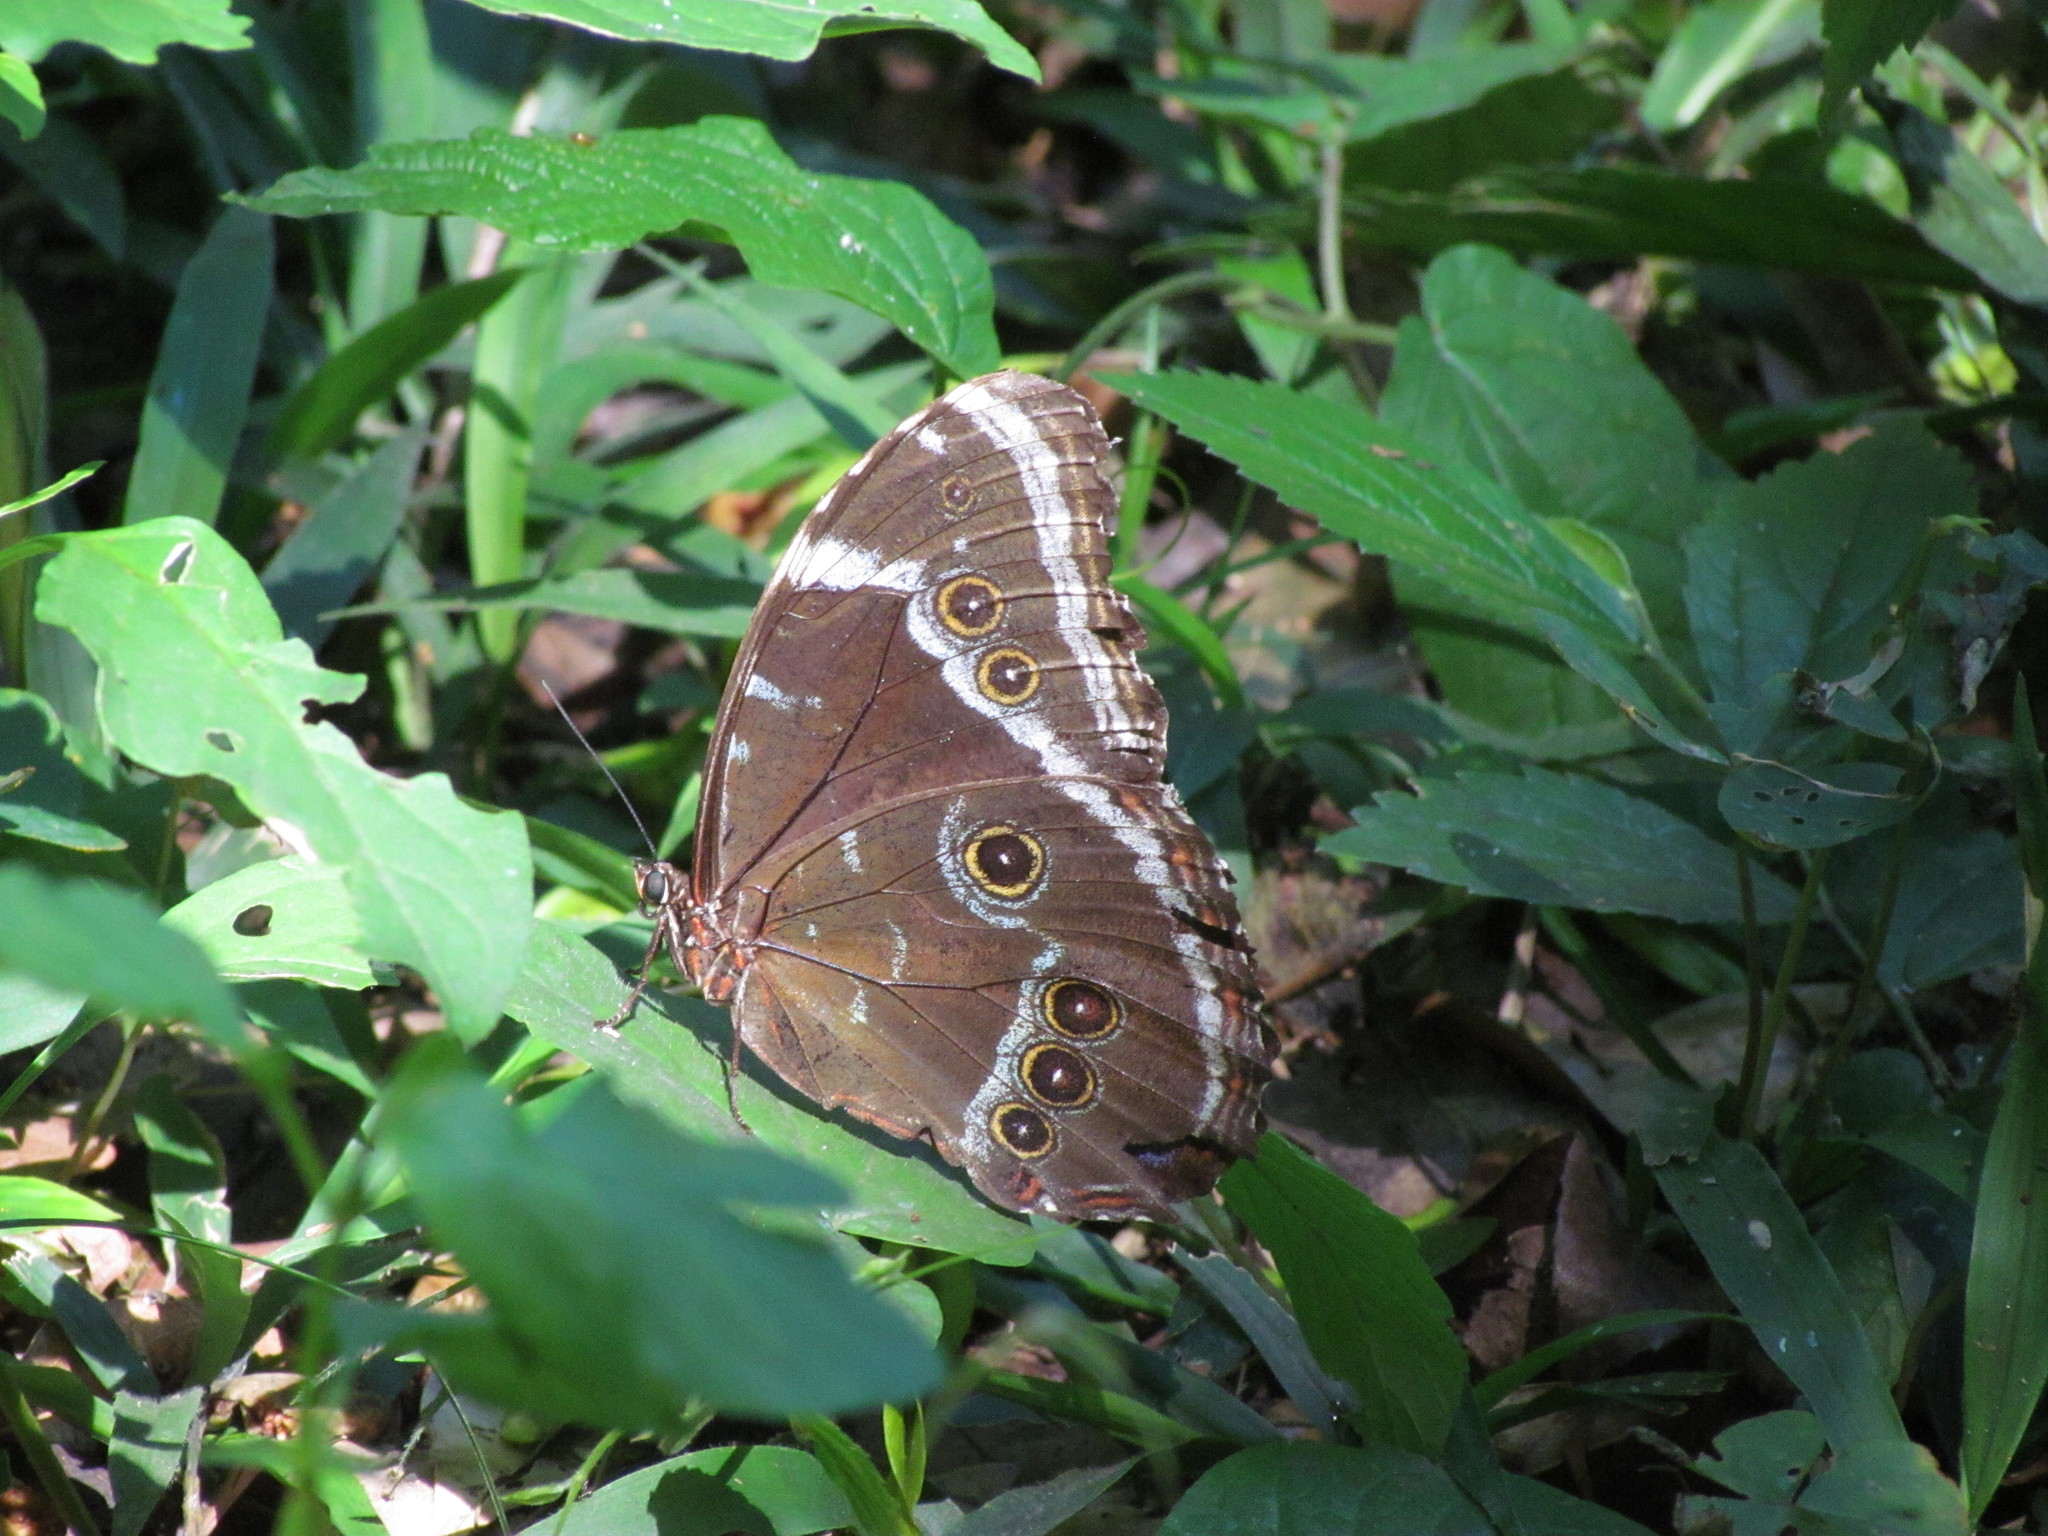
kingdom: Animalia
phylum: Arthropoda
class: Insecta
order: Lepidoptera
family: Nymphalidae
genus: Morpho
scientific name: Morpho helenor
